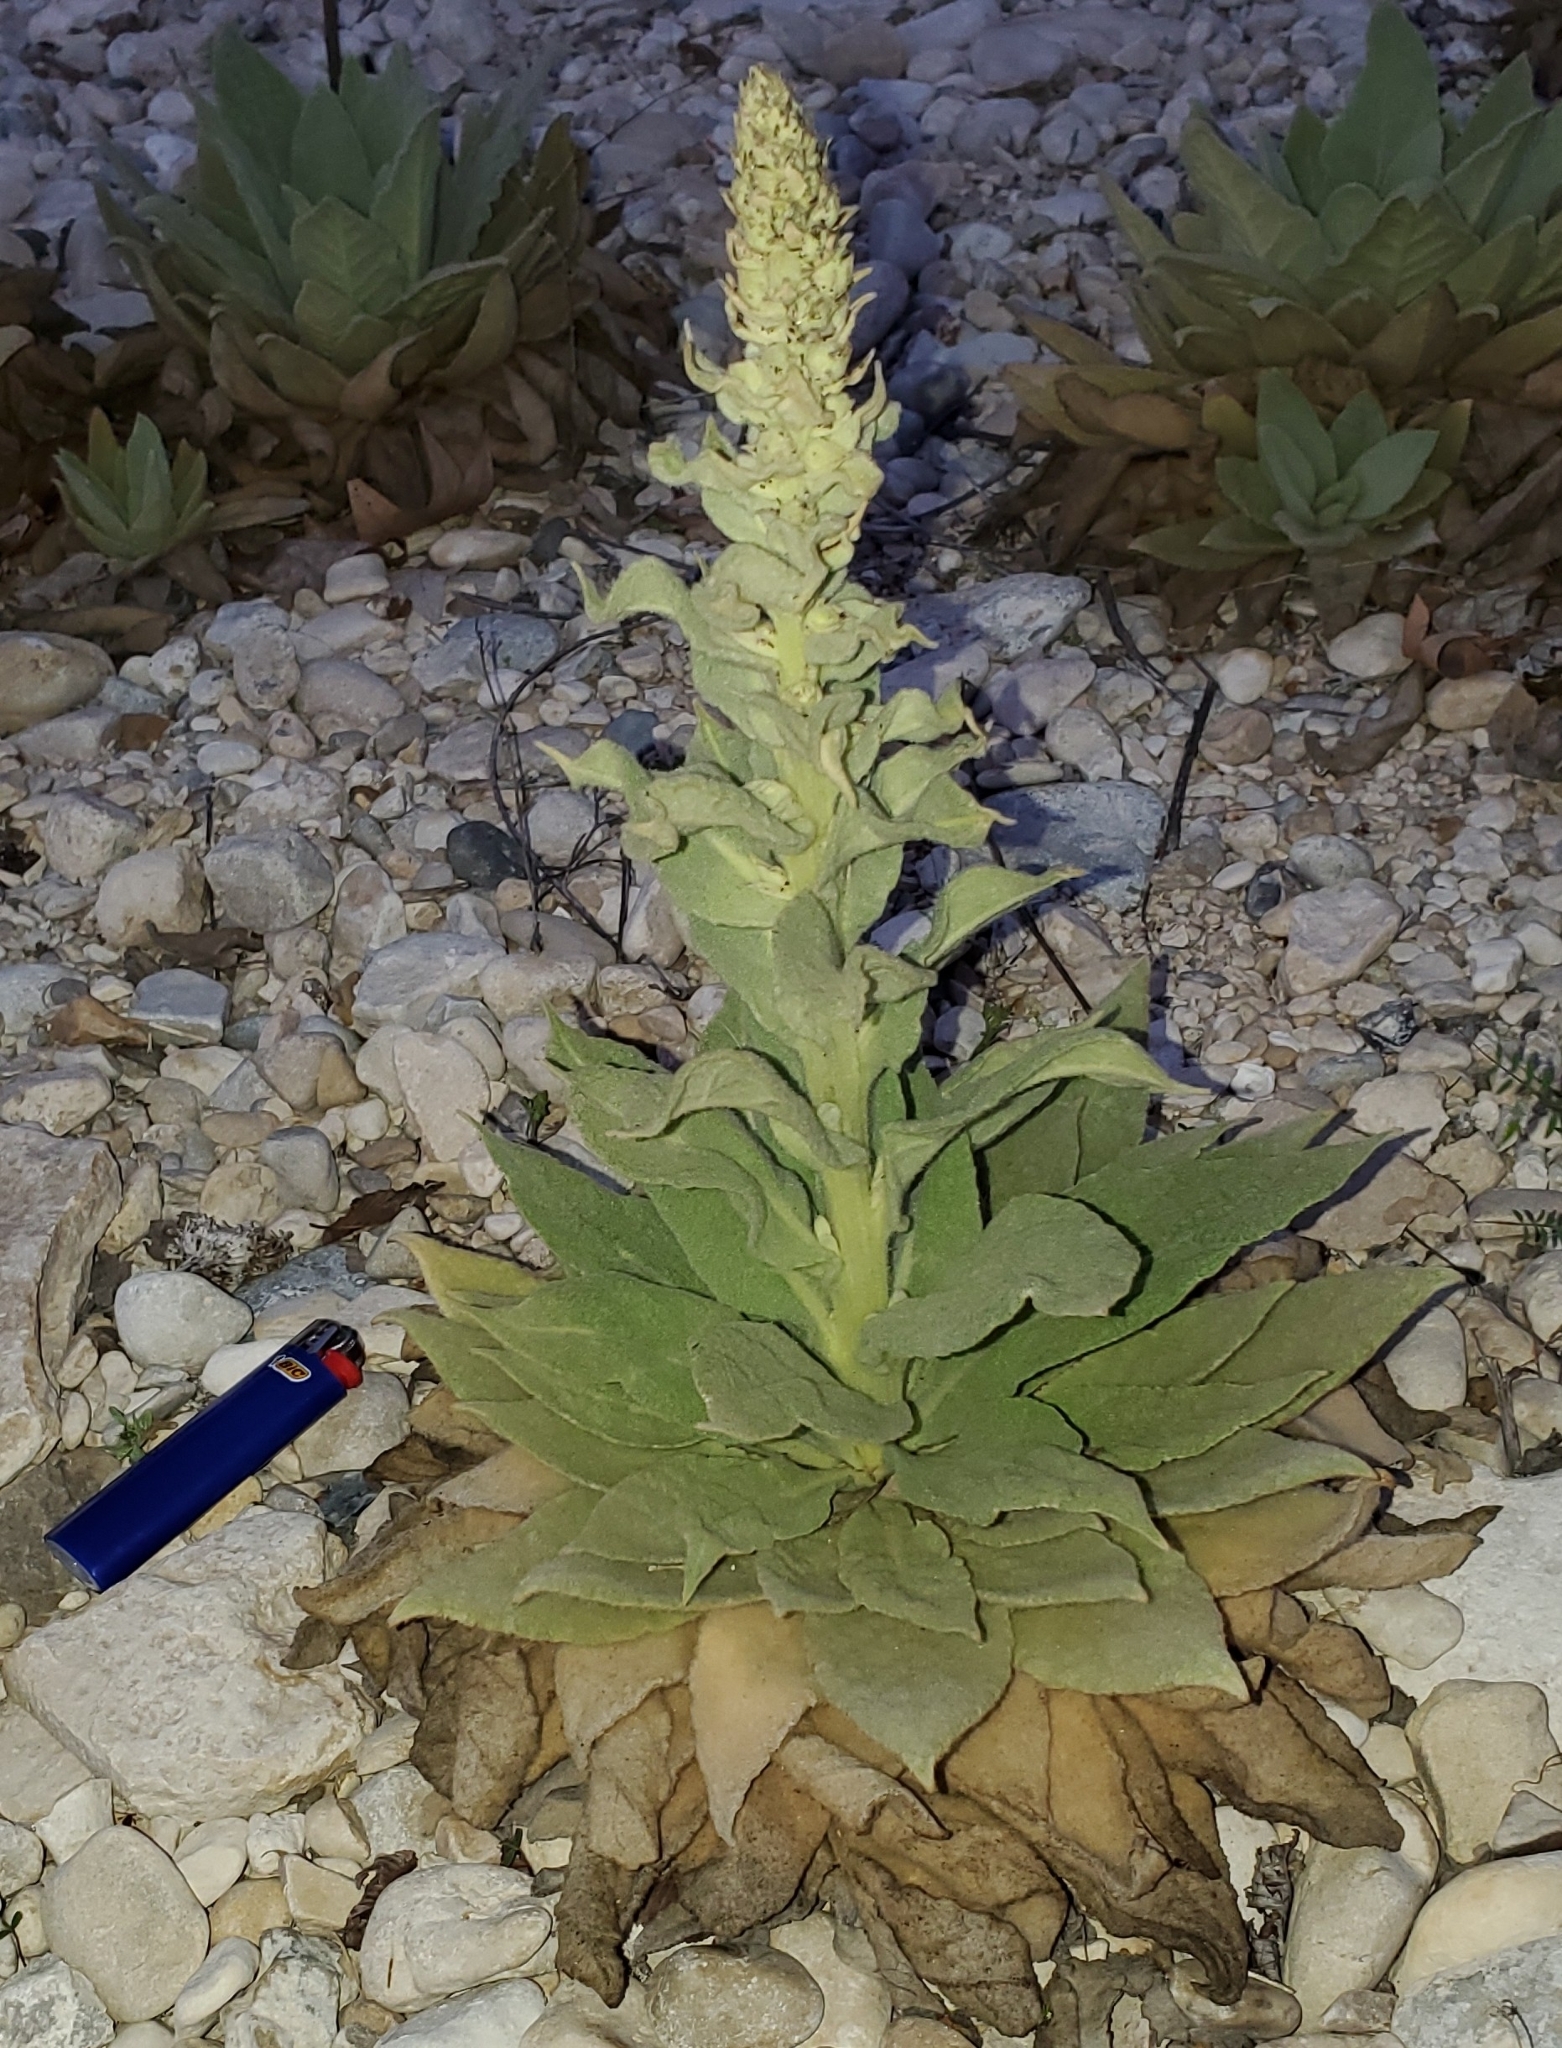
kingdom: Plantae
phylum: Tracheophyta
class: Magnoliopsida
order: Lamiales
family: Scrophulariaceae
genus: Verbascum
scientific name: Verbascum thapsus
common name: Common mullein
